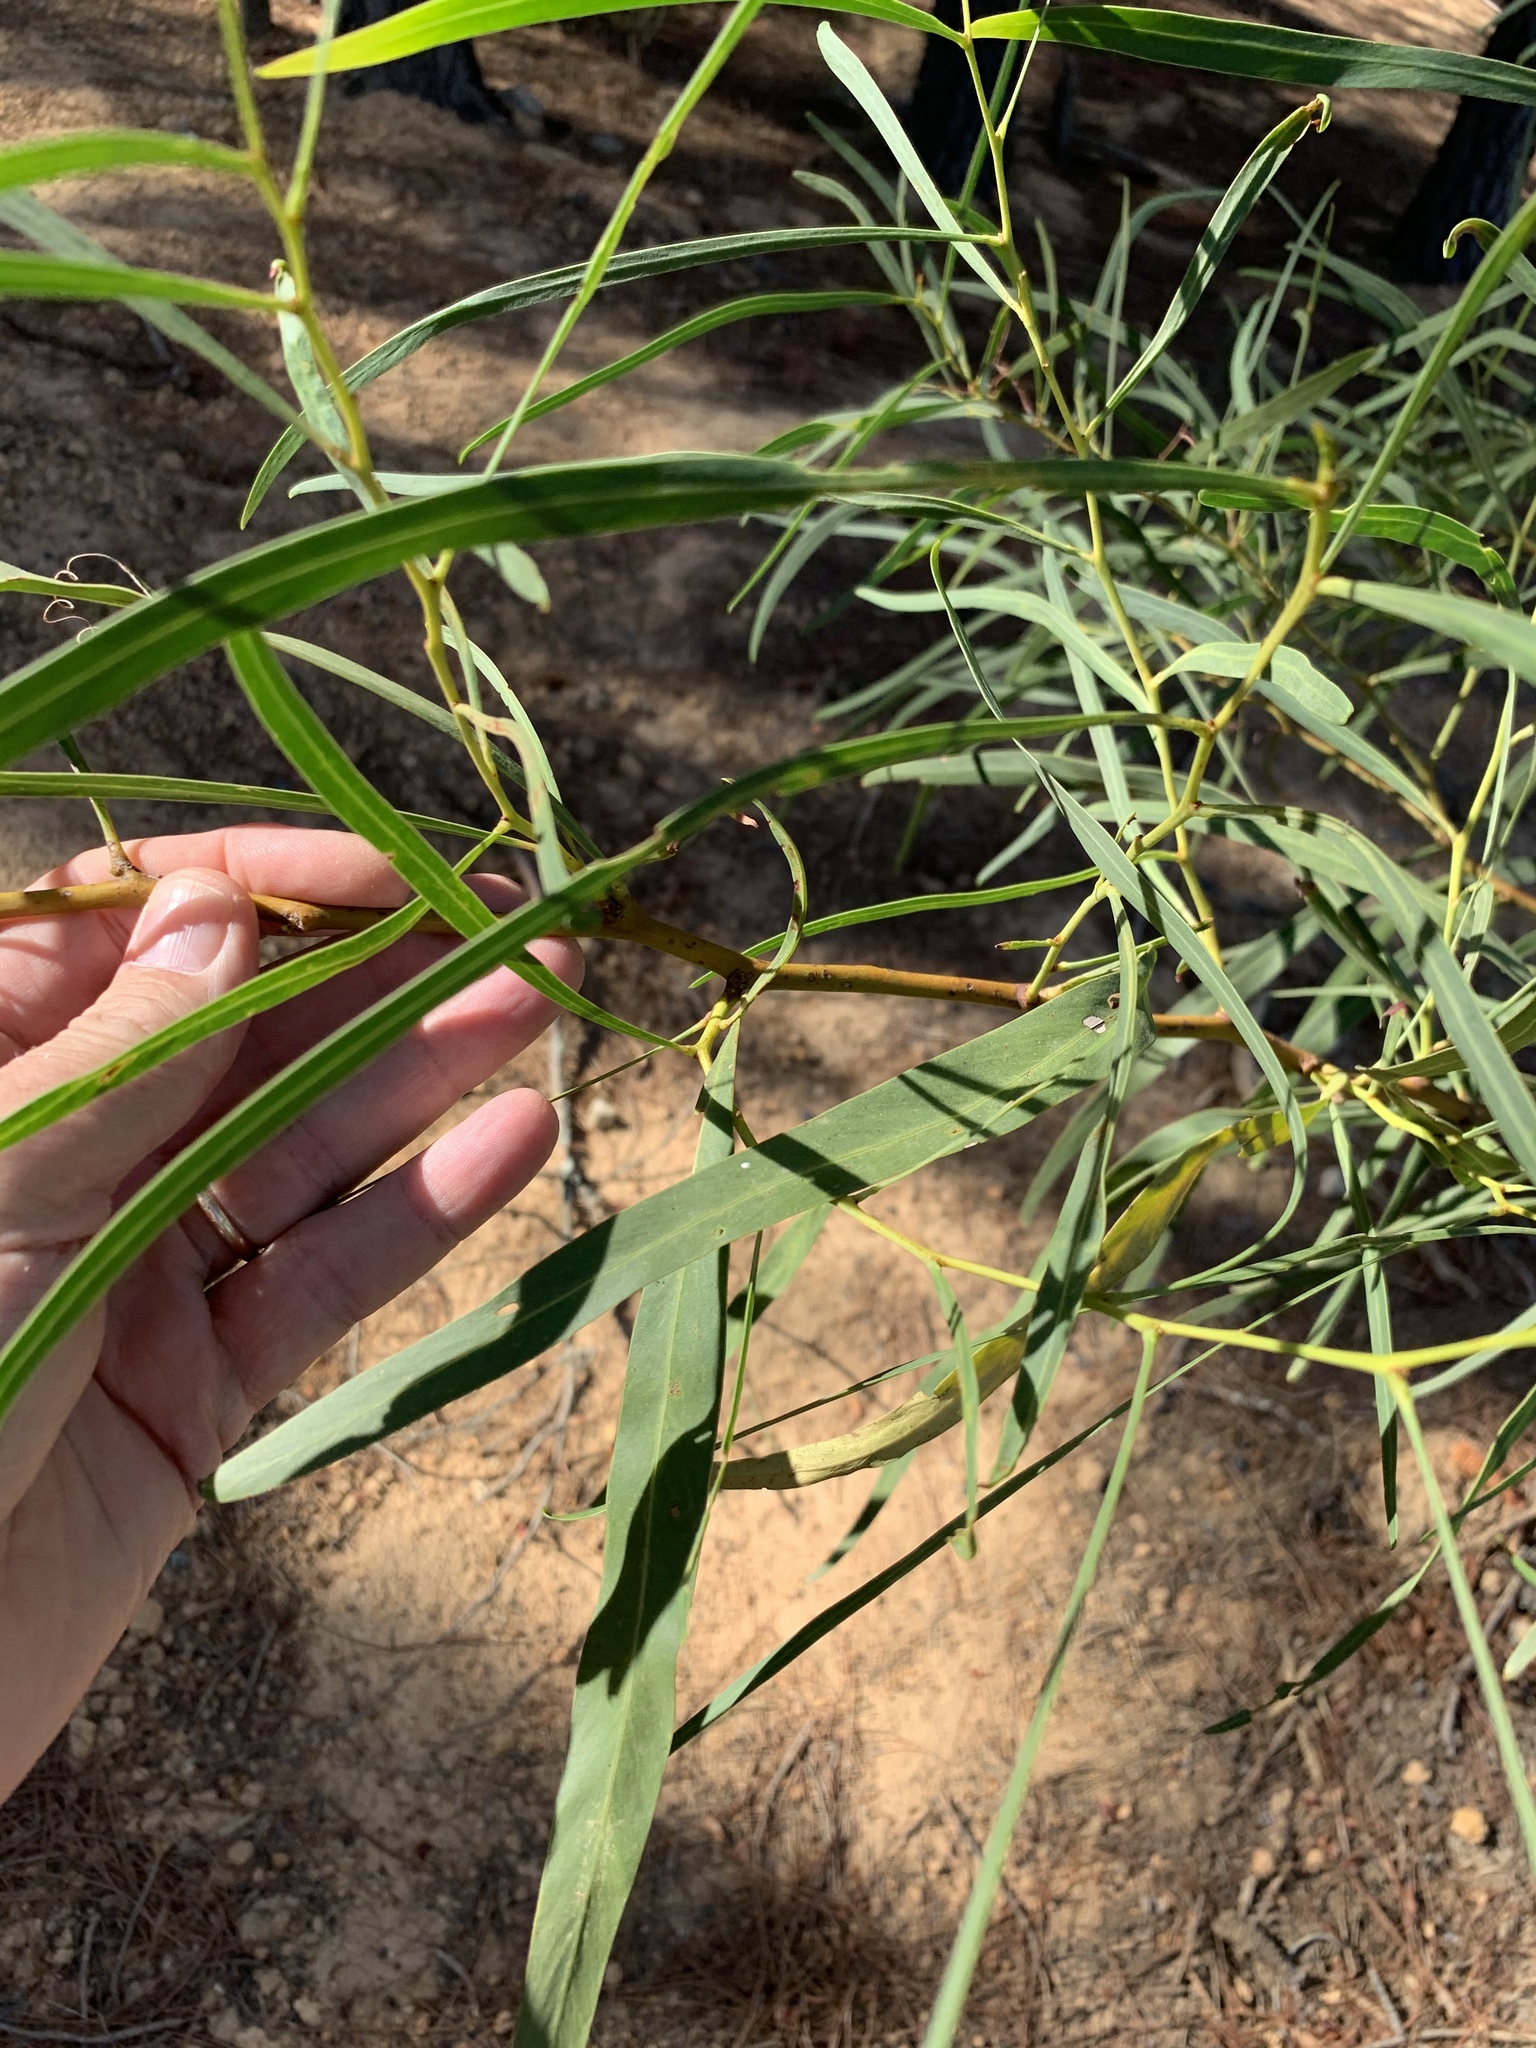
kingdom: Plantae
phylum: Tracheophyta
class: Magnoliopsida
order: Fabales
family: Fabaceae
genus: Acacia
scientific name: Acacia saligna
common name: Orange wattle
